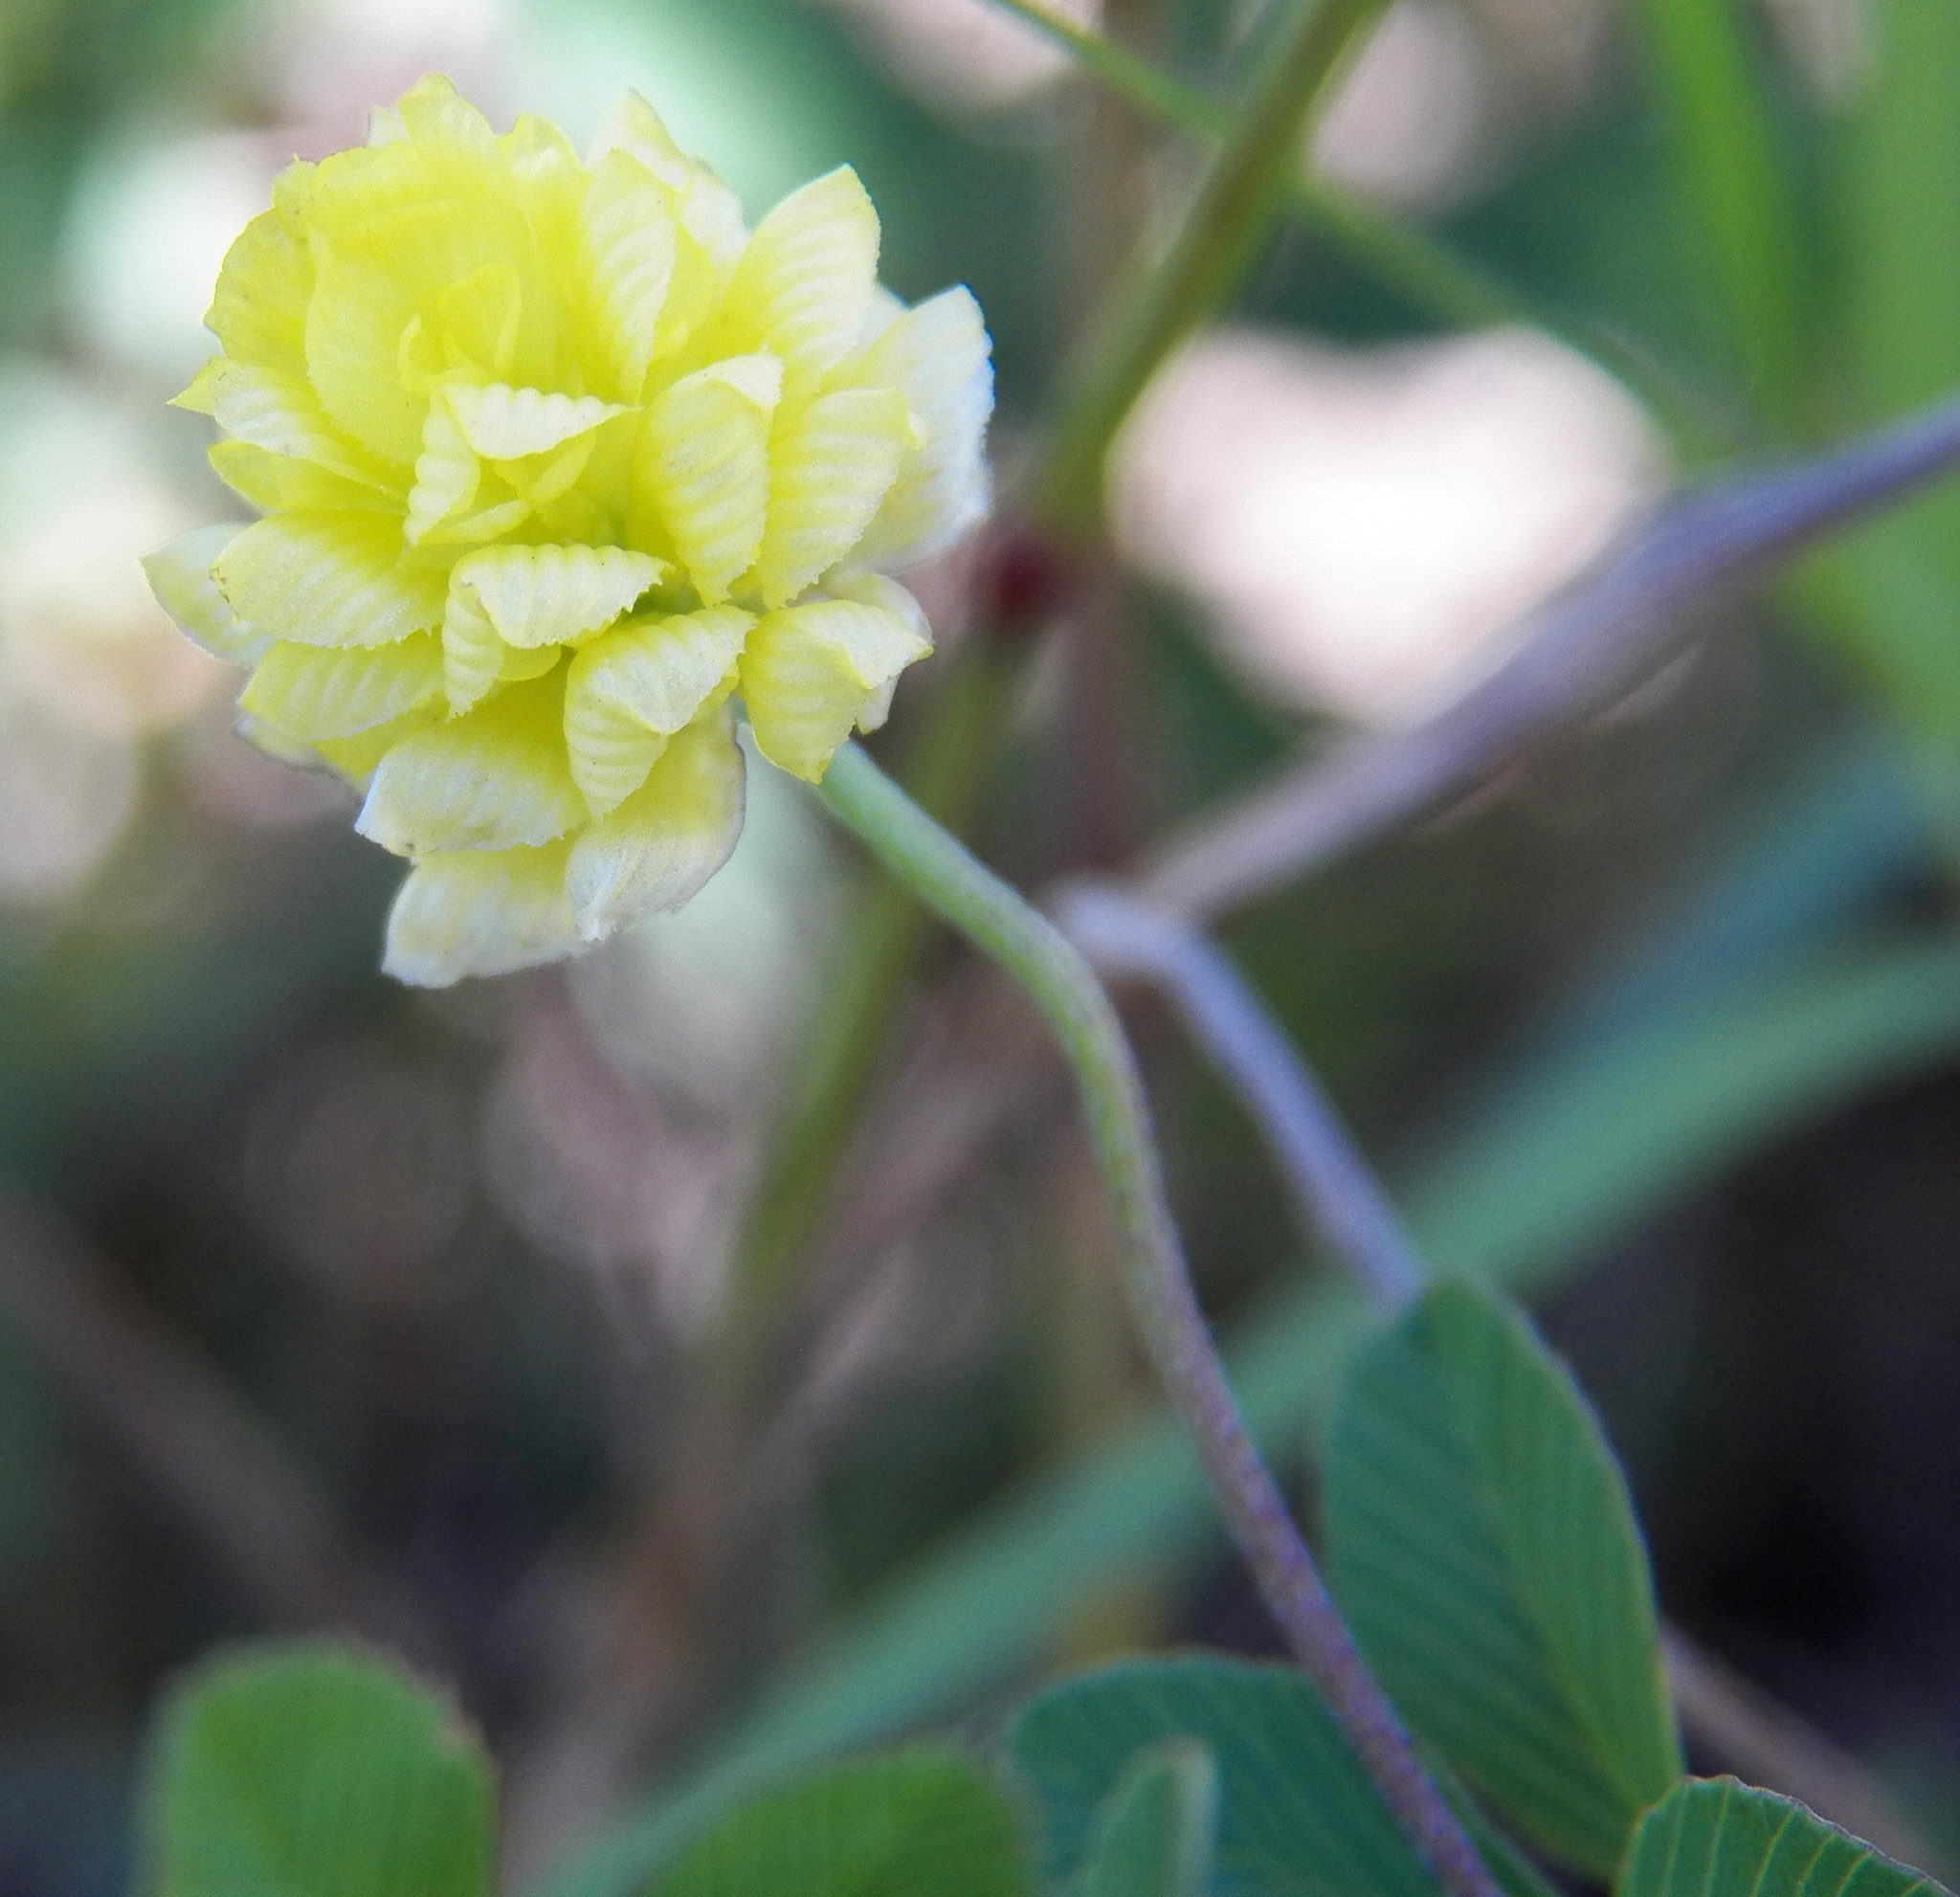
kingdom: Plantae
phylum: Tracheophyta
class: Magnoliopsida
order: Fabales
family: Fabaceae
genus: Trifolium
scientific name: Trifolium campestre
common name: Field clover
